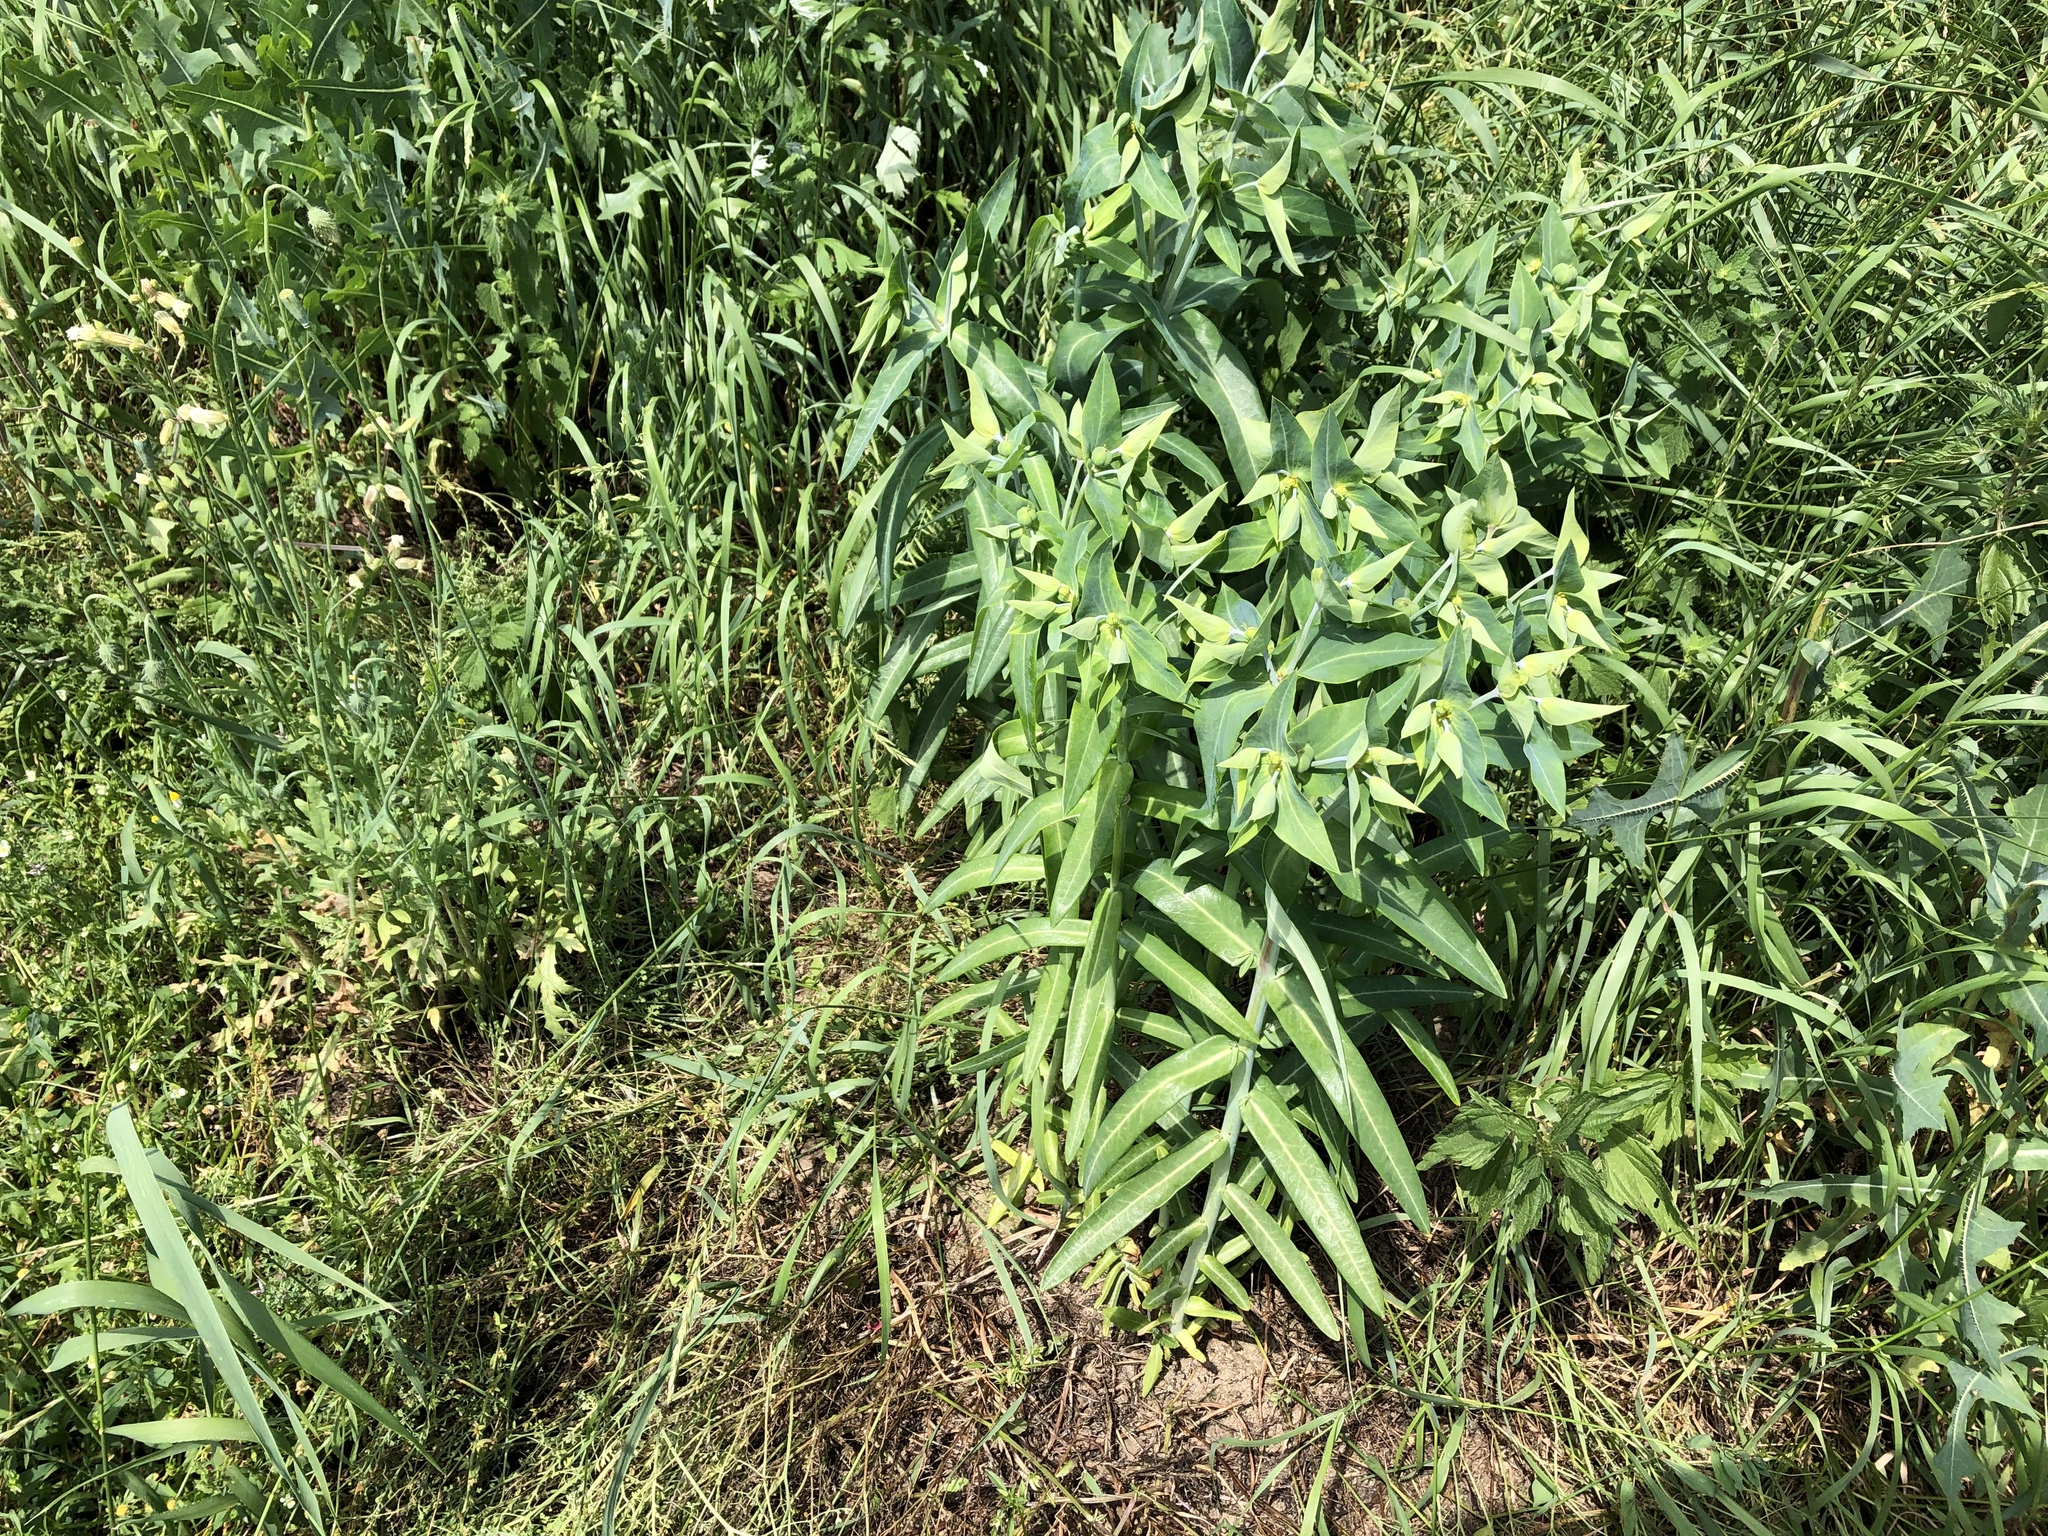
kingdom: Plantae
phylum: Tracheophyta
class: Magnoliopsida
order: Malpighiales
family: Euphorbiaceae
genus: Euphorbia
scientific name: Euphorbia lathyris
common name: Caper spurge
